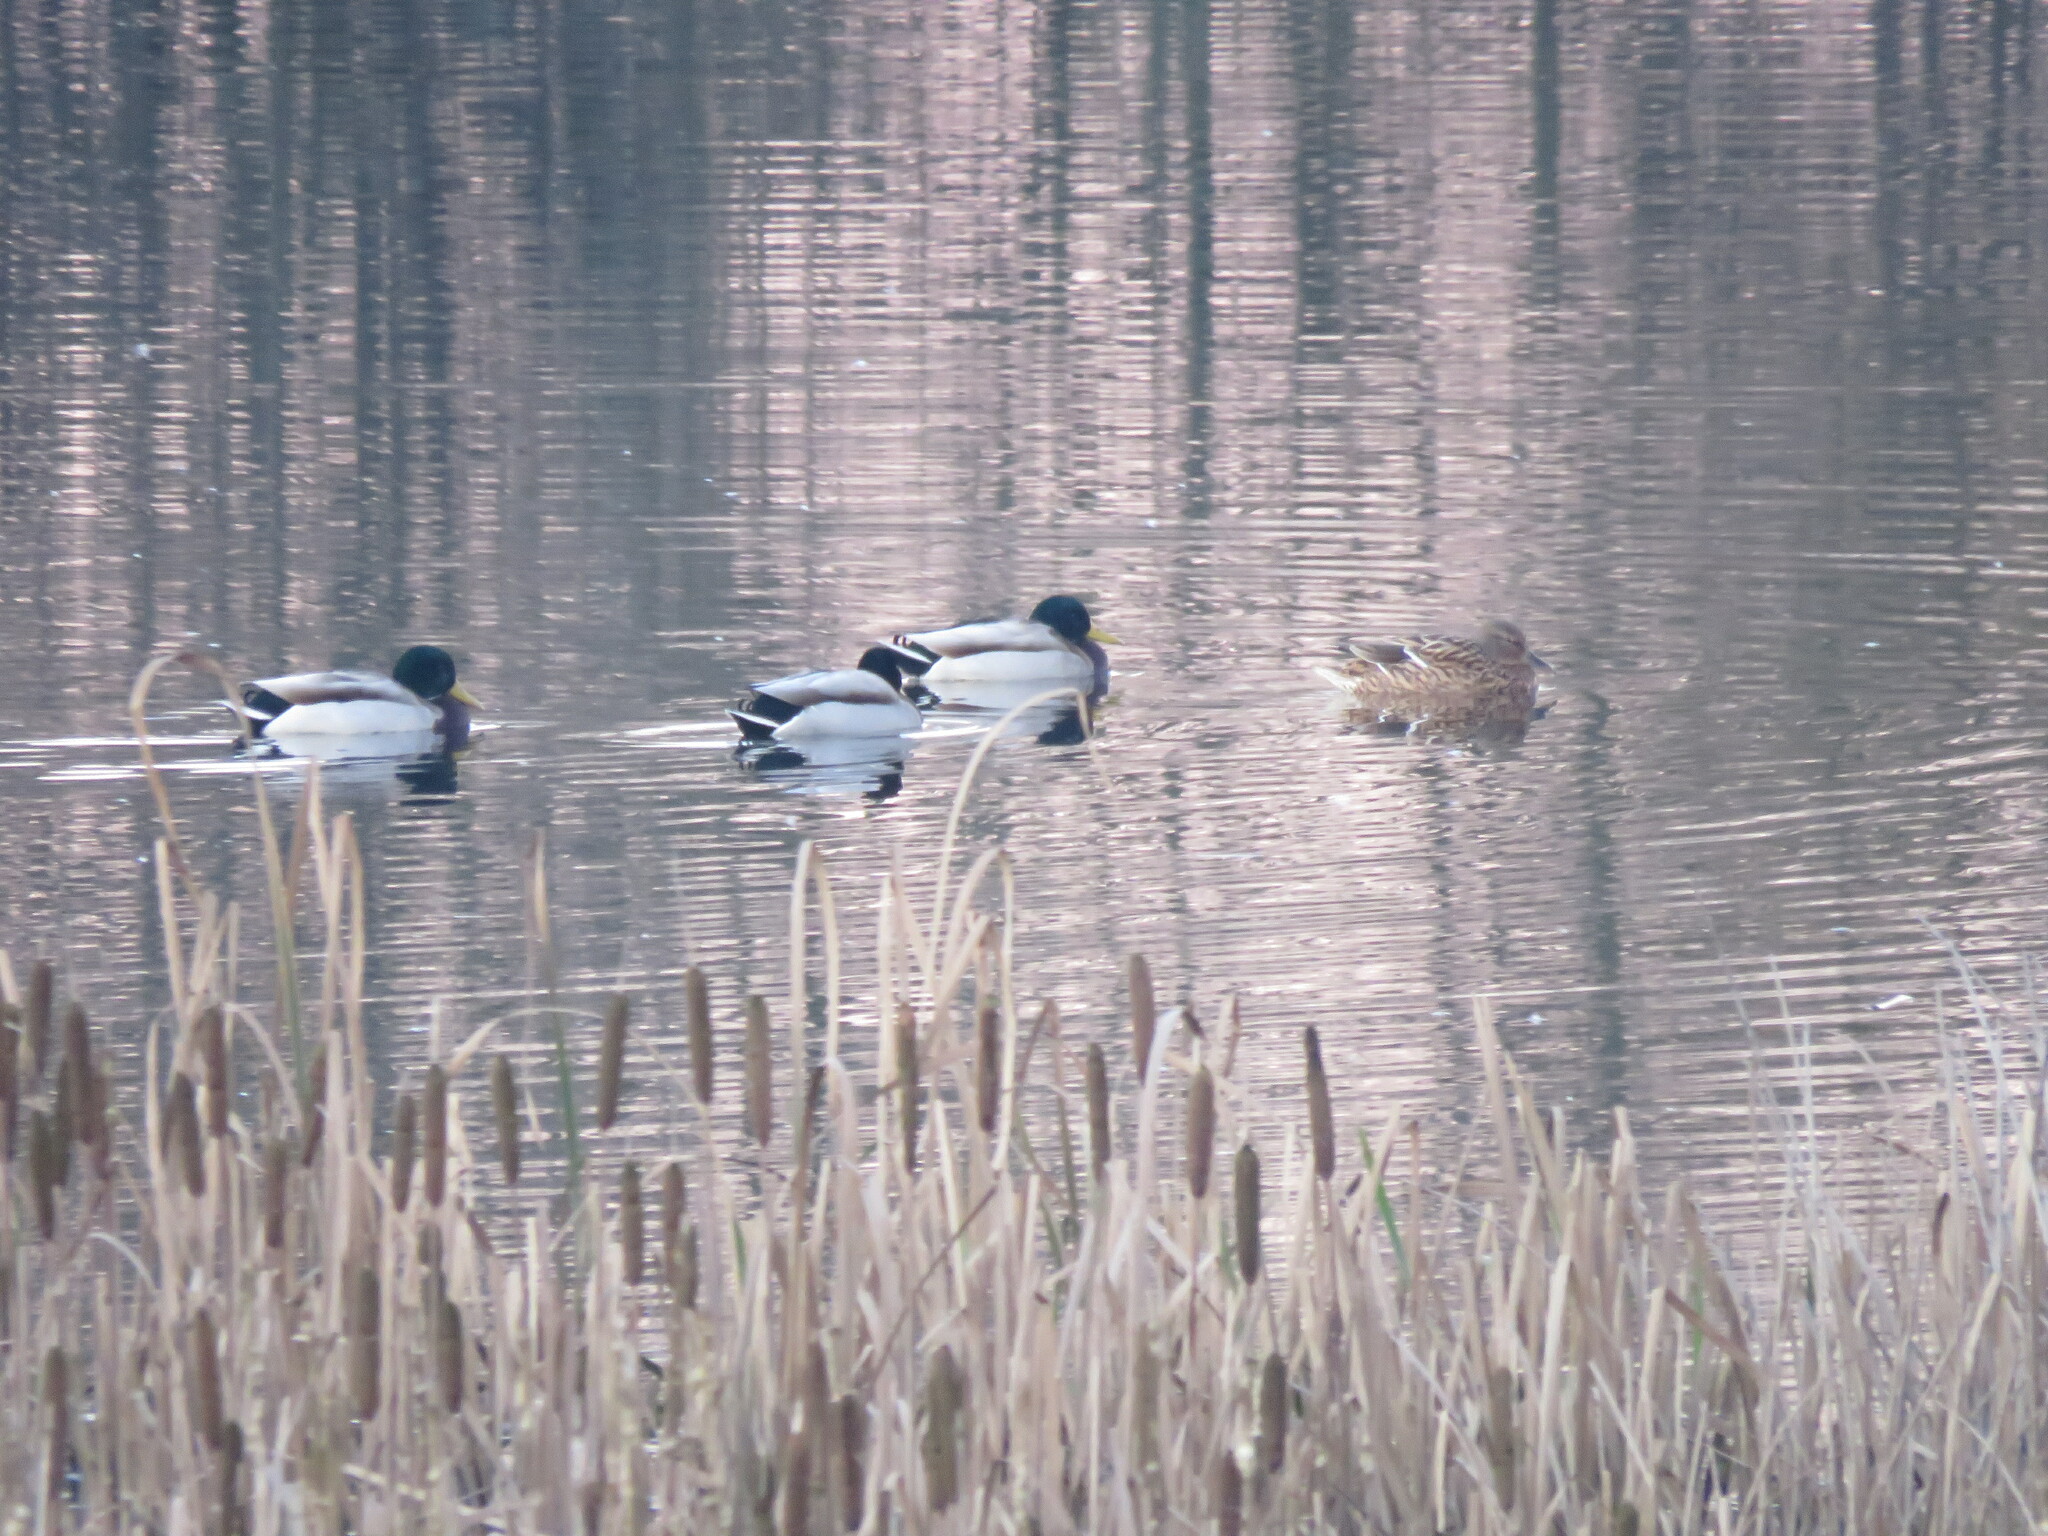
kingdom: Animalia
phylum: Chordata
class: Aves
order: Anseriformes
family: Anatidae
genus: Anas
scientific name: Anas platyrhynchos
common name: Mallard
